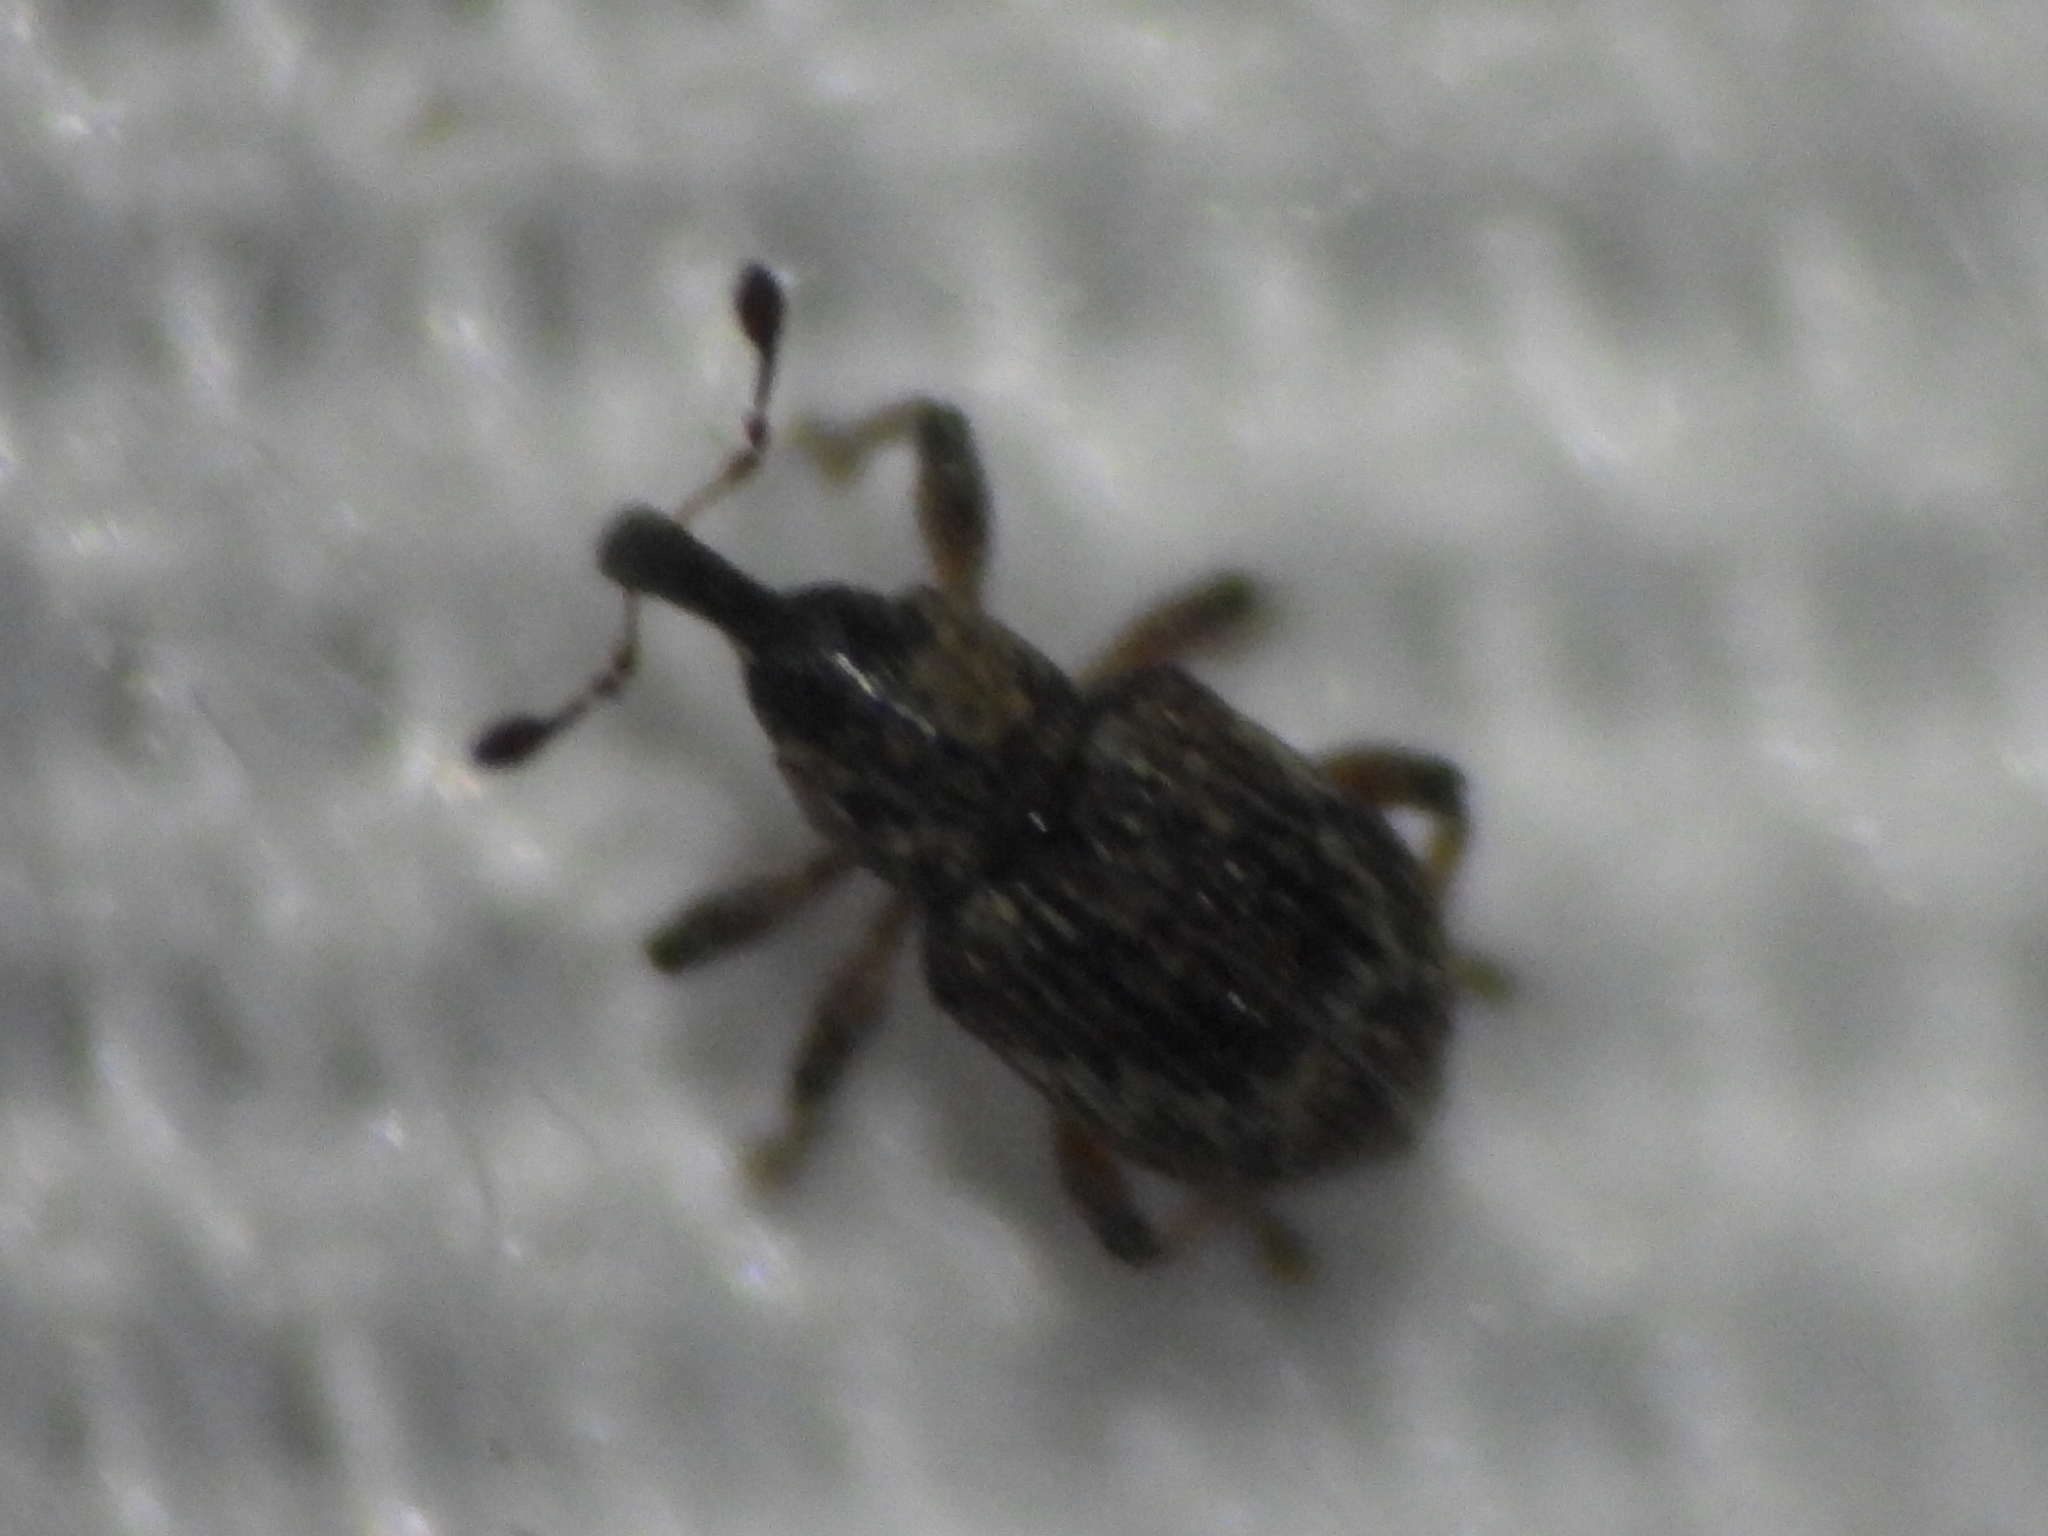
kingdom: Animalia
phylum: Arthropoda
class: Insecta
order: Coleoptera
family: Brachyceridae
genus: Tanysphyrus
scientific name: Tanysphyrus lemnae
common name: Duckweed weevil
